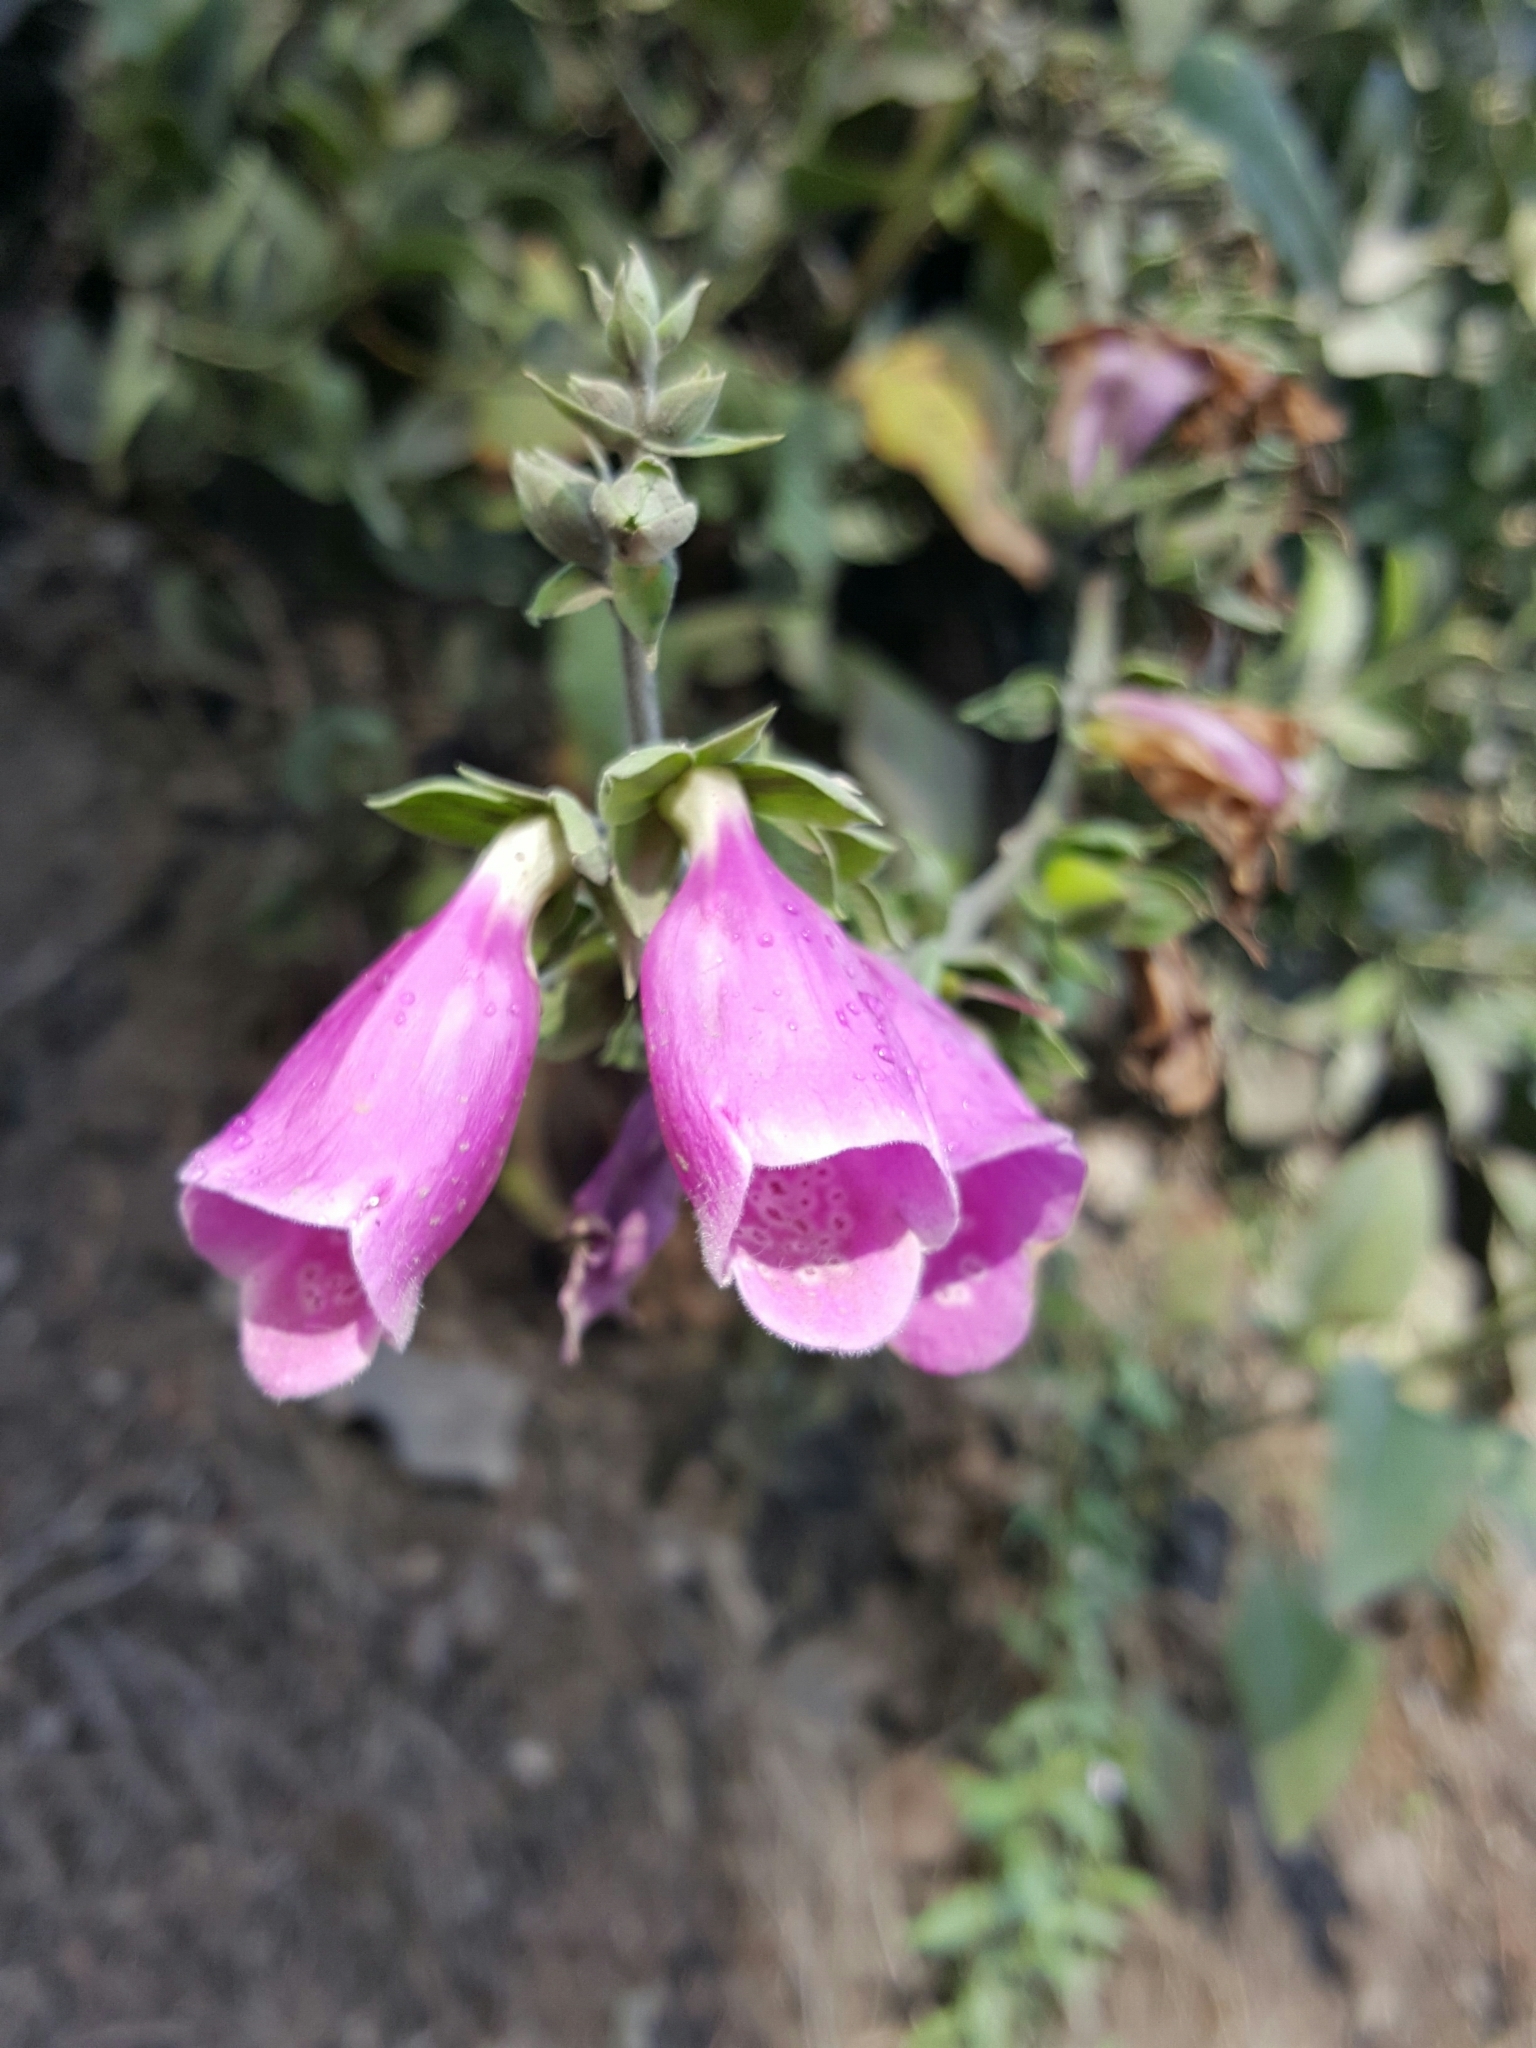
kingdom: Plantae
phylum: Tracheophyta
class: Magnoliopsida
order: Lamiales
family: Plantaginaceae
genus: Digitalis
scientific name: Digitalis purpurea
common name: Foxglove
